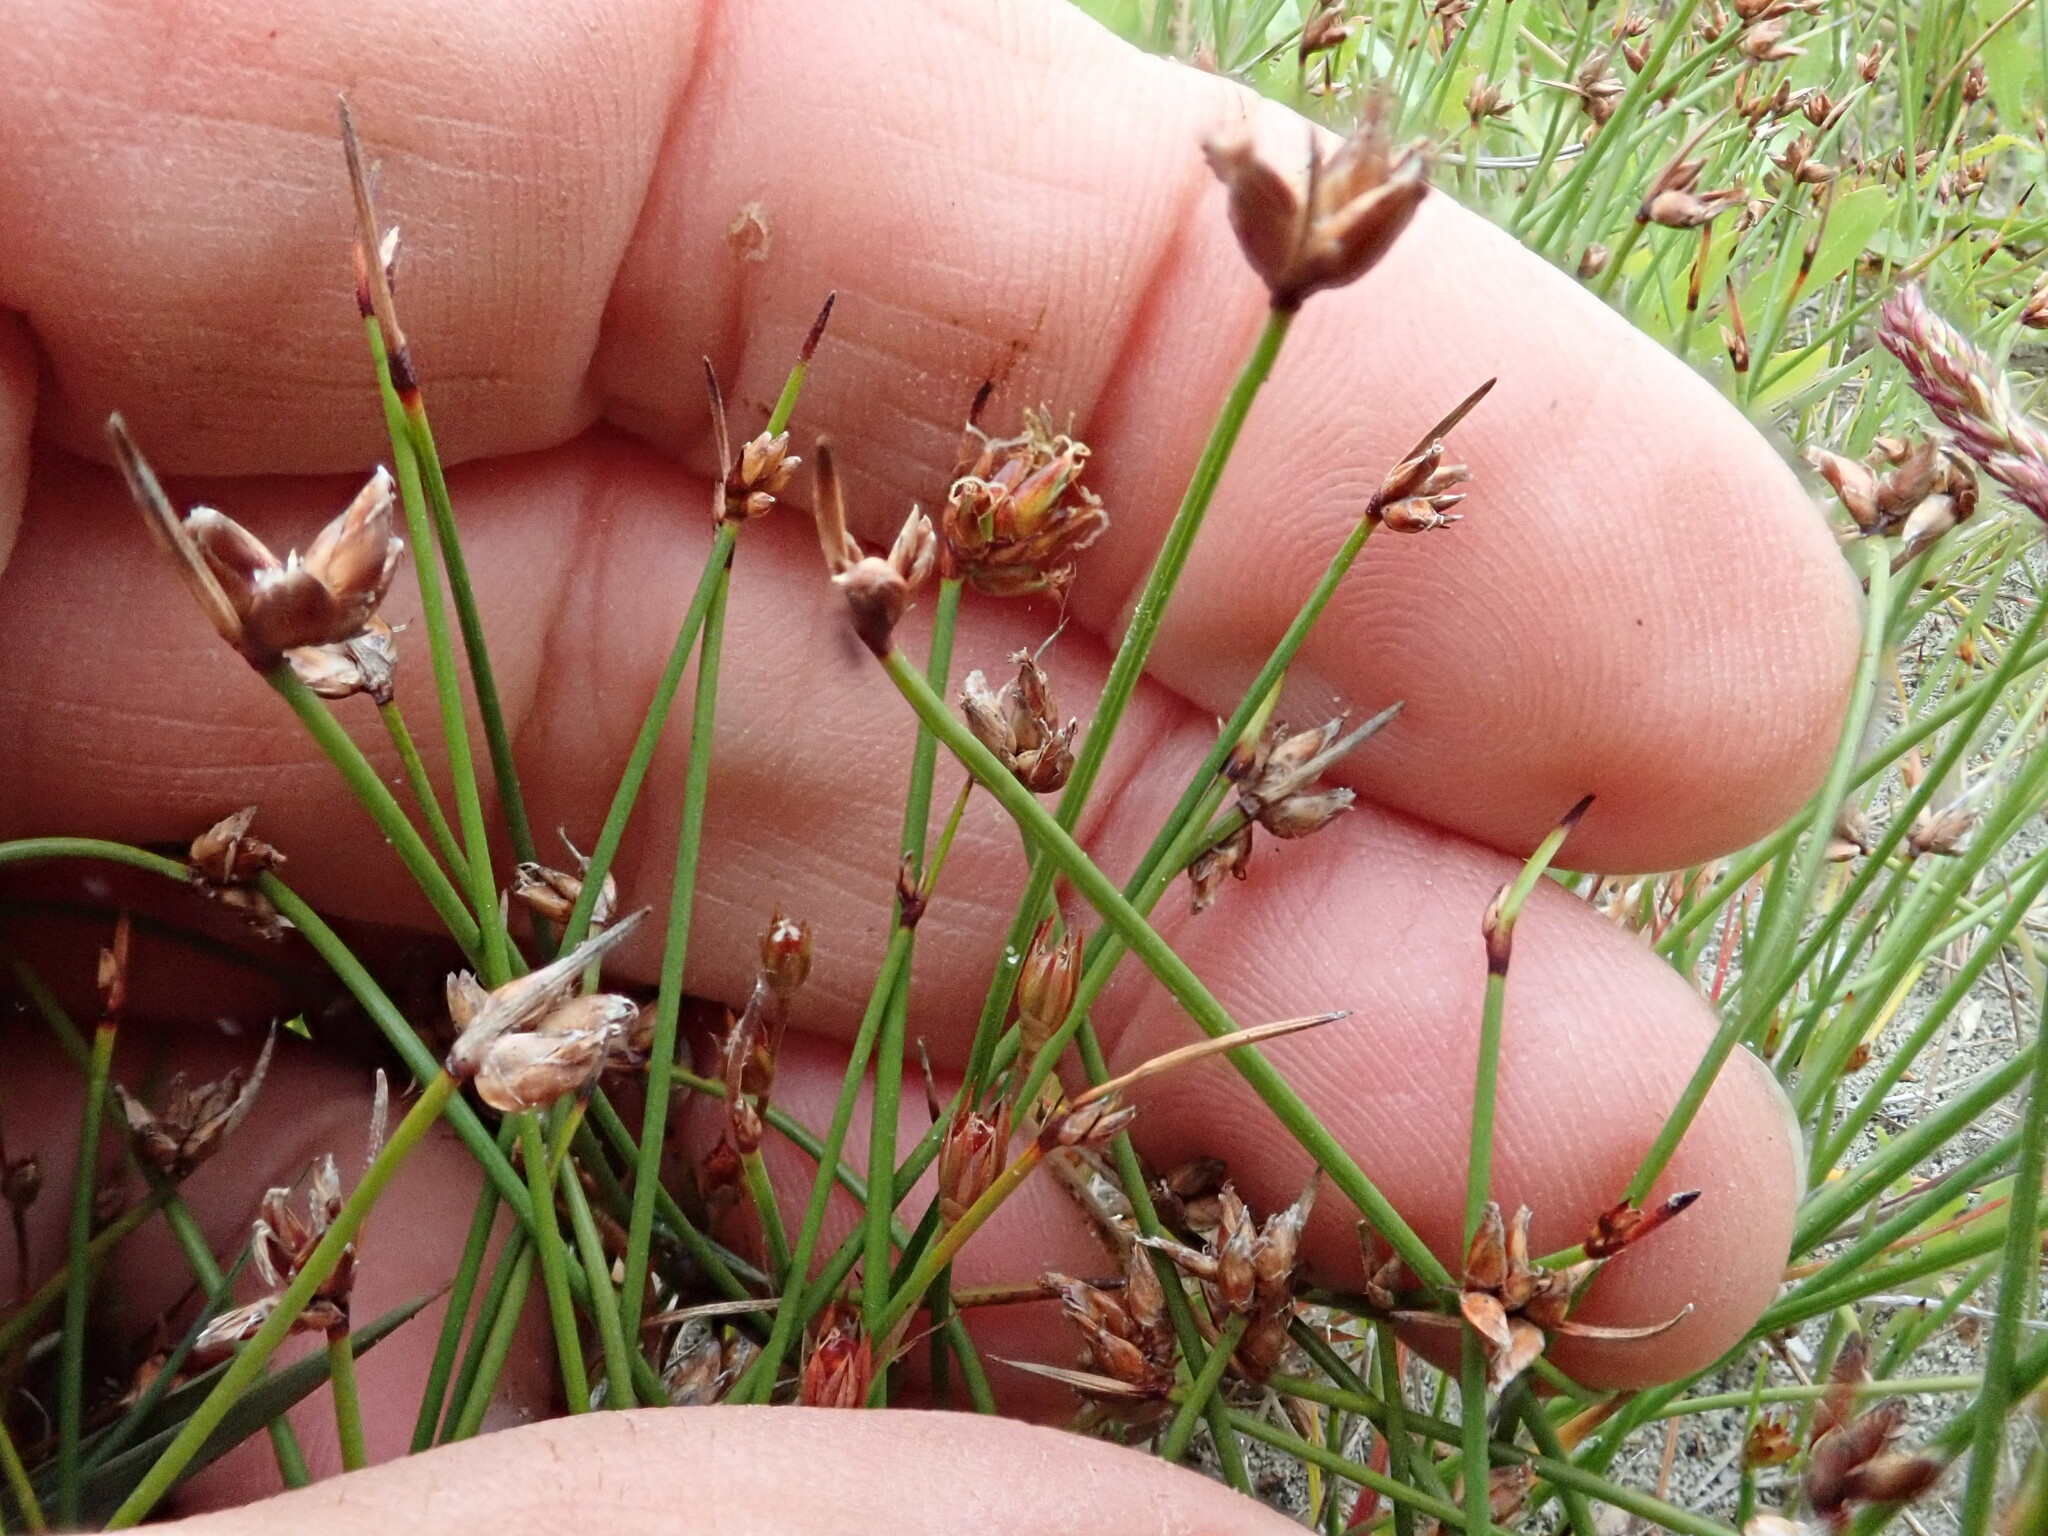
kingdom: Plantae
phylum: Tracheophyta
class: Liliopsida
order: Poales
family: Cyperaceae
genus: Schoenus
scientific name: Schoenus nitens
